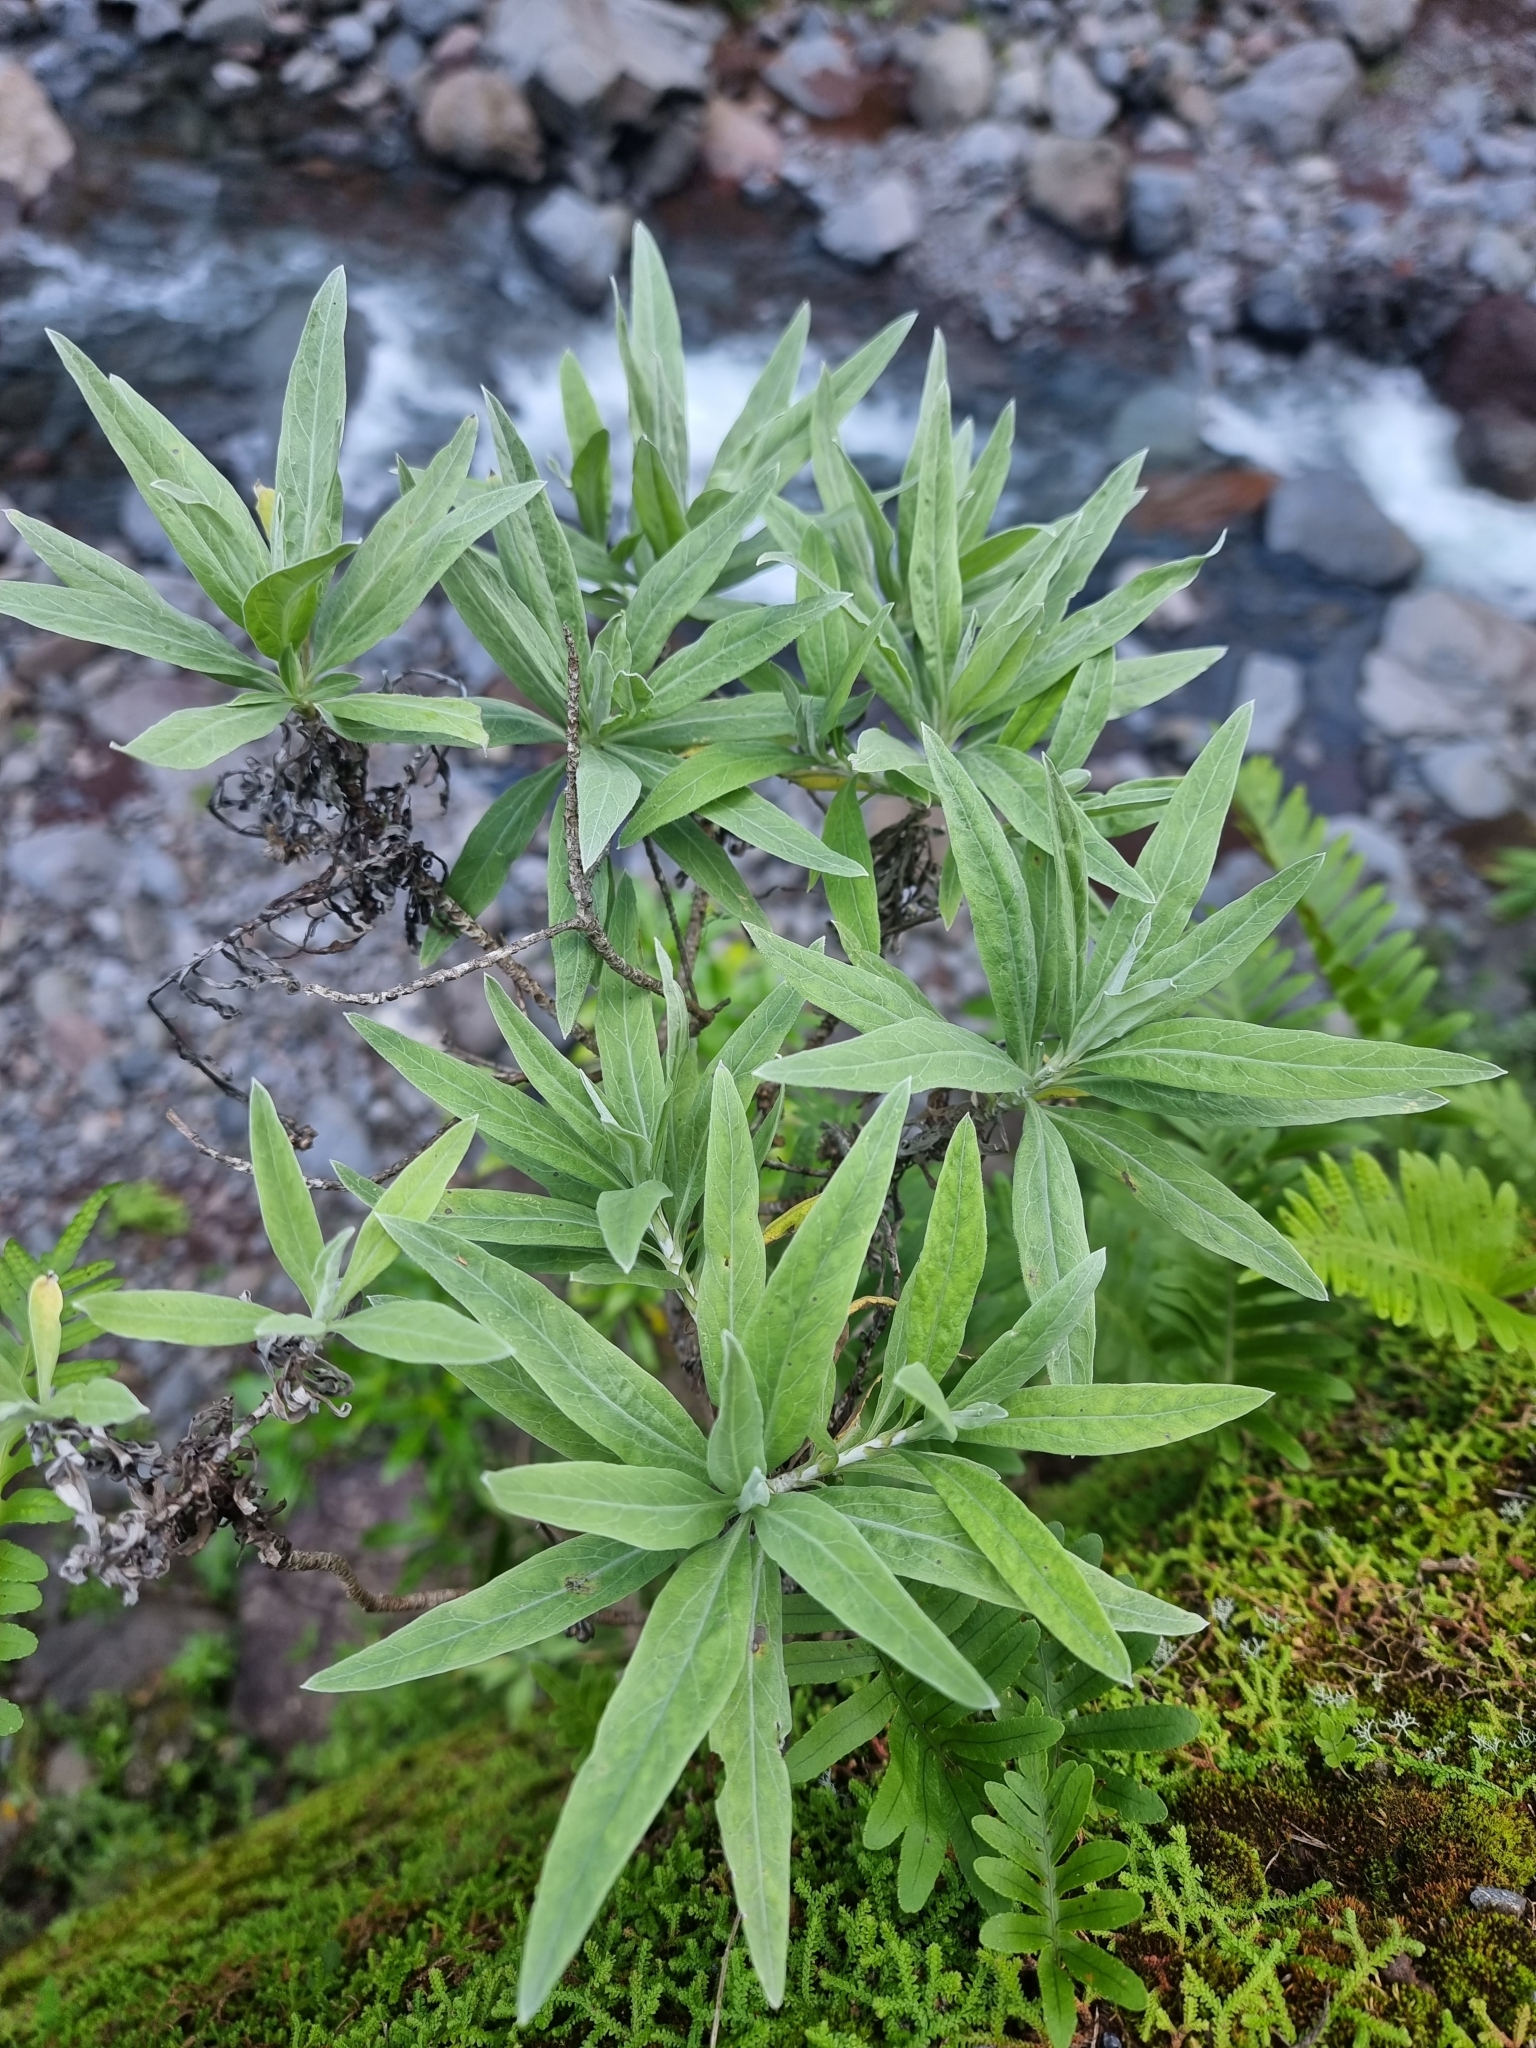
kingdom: Plantae
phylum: Tracheophyta
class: Magnoliopsida
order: Asterales
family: Asteraceae
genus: Helichrysum
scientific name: Helichrysum melaleucum
